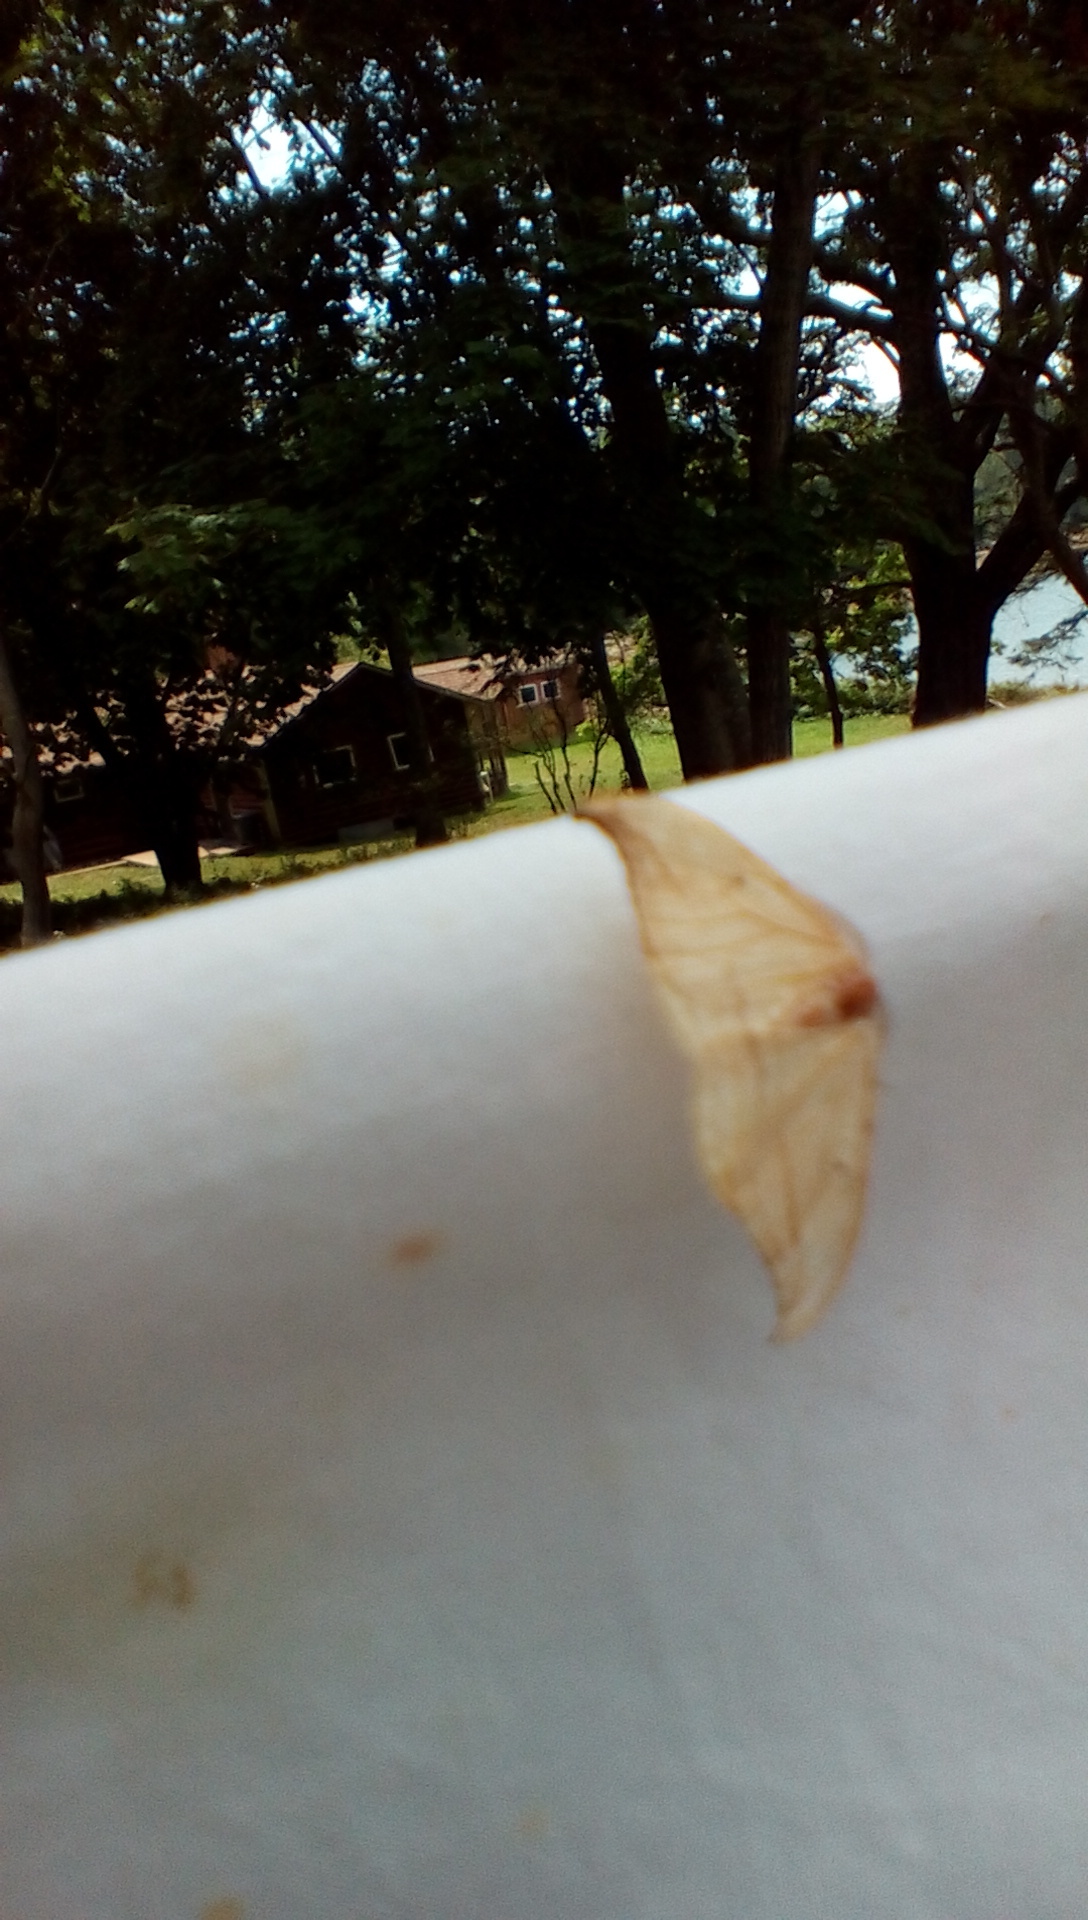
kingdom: Animalia
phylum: Arthropoda
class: Insecta
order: Lepidoptera
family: Drepanidae
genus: Drepana
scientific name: Drepana arcuata
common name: Arched hooktip moth
